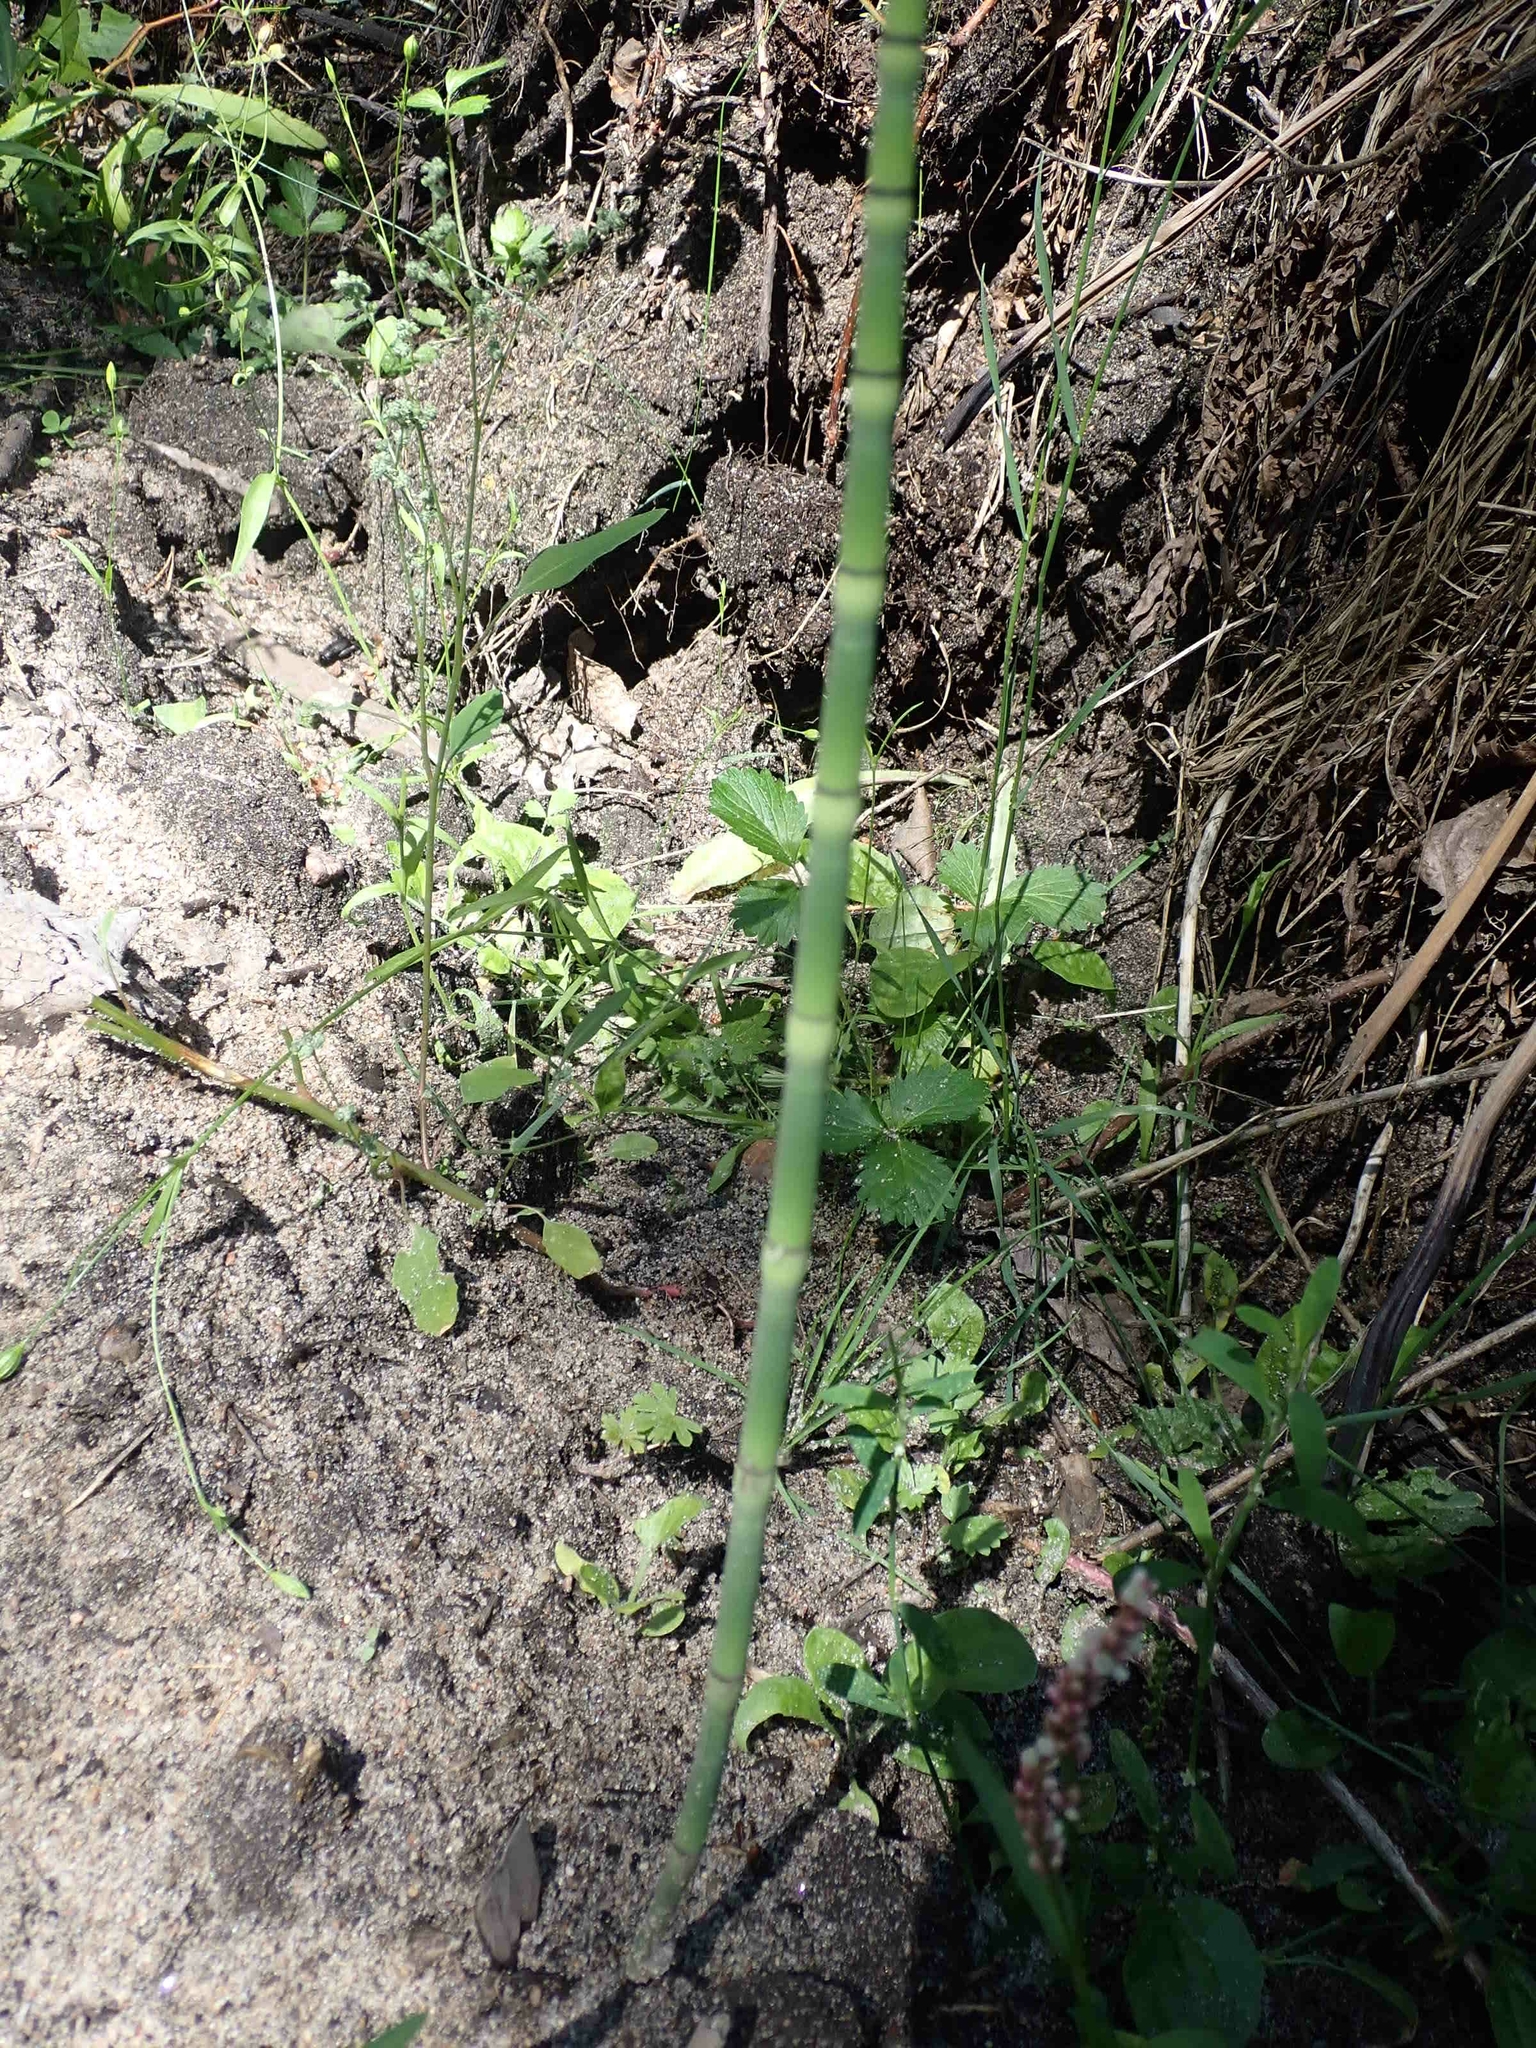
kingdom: Plantae
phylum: Tracheophyta
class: Polypodiopsida
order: Equisetales
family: Equisetaceae
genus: Equisetum
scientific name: Equisetum praealtum
